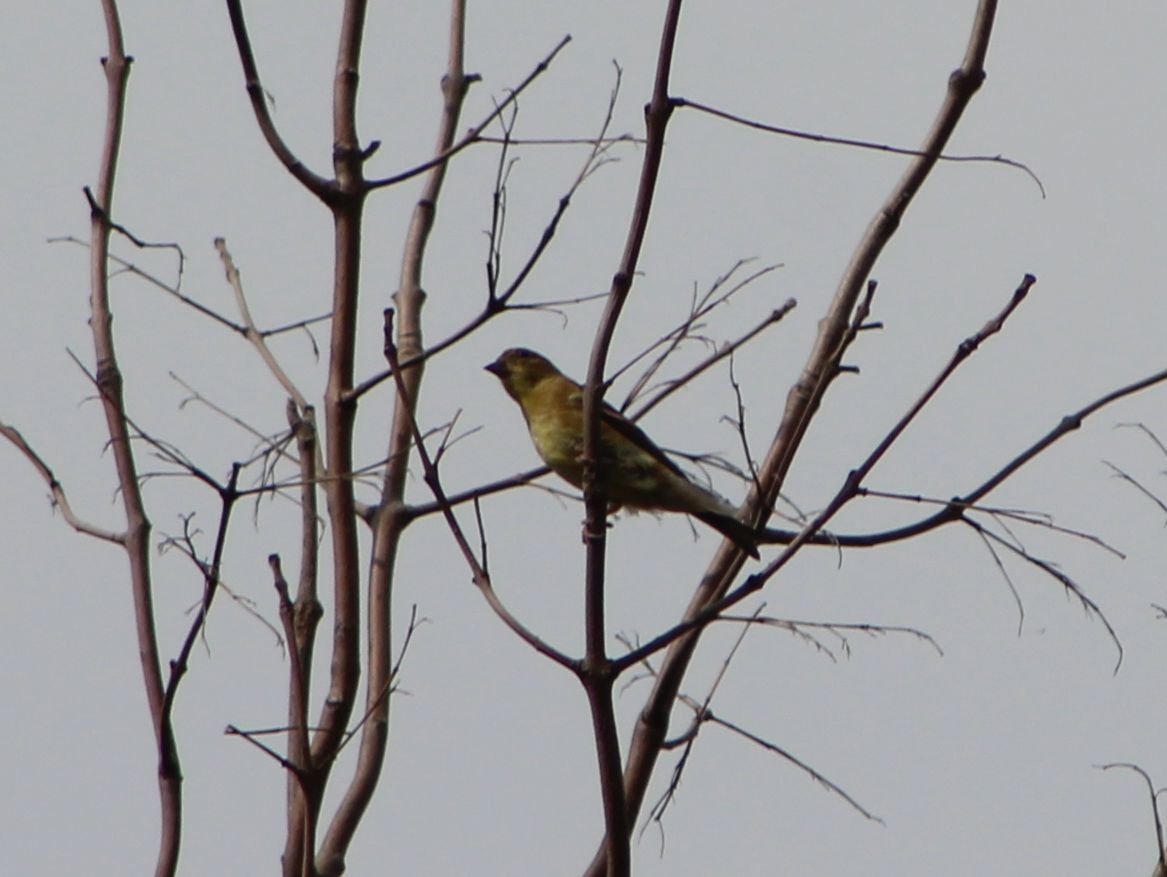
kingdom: Animalia
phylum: Chordata
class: Aves
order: Passeriformes
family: Fringillidae
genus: Spinus
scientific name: Spinus tristis
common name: American goldfinch
